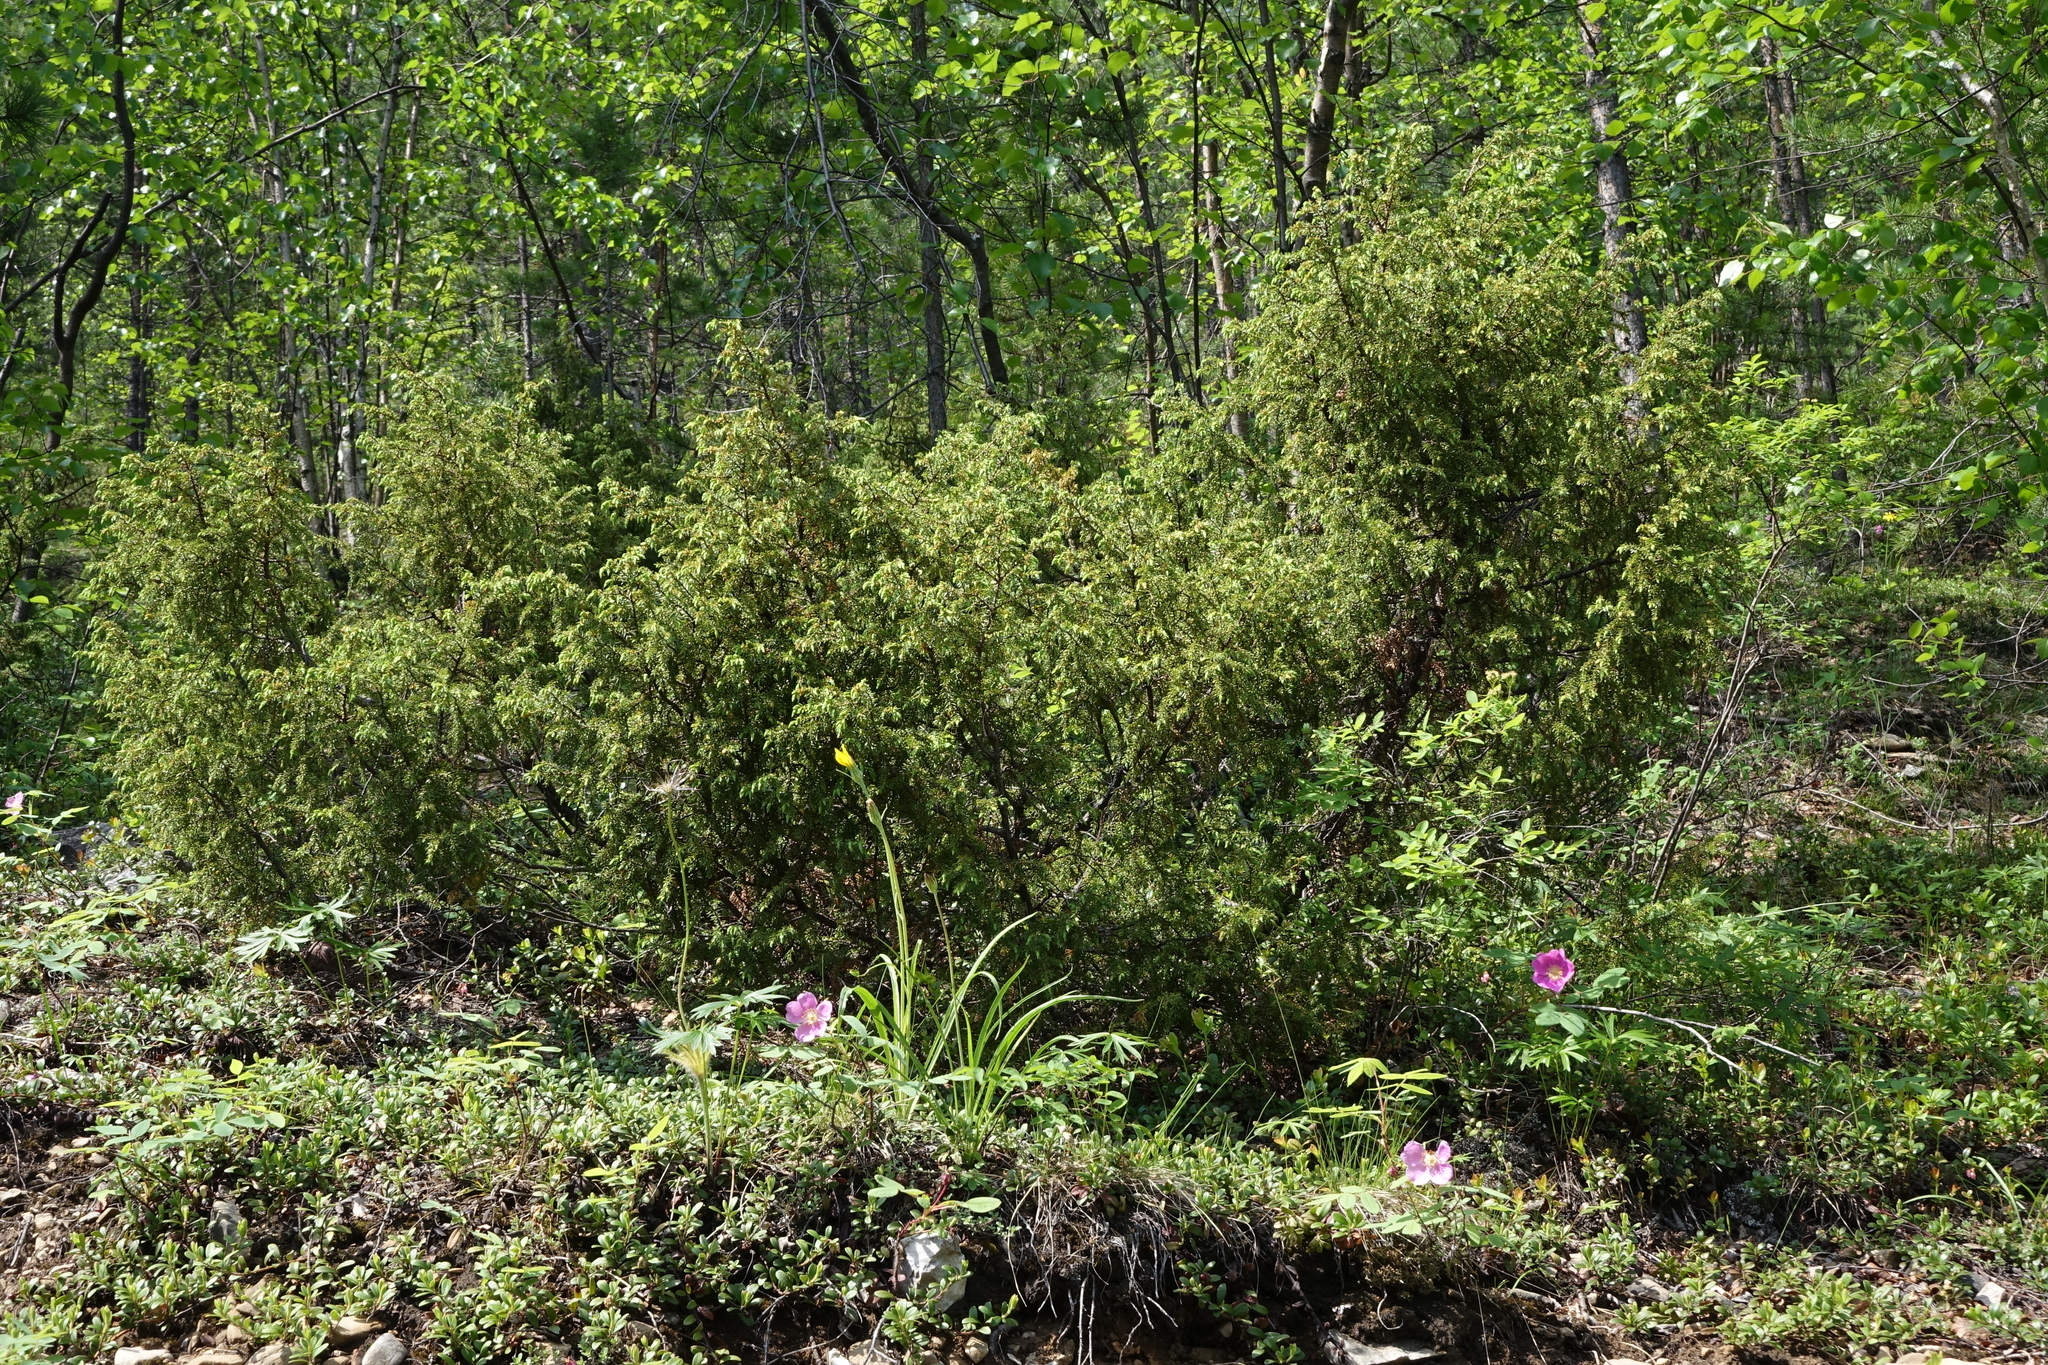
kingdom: Plantae
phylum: Tracheophyta
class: Pinopsida
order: Pinales
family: Cupressaceae
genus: Juniperus
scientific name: Juniperus communis
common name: Common juniper
